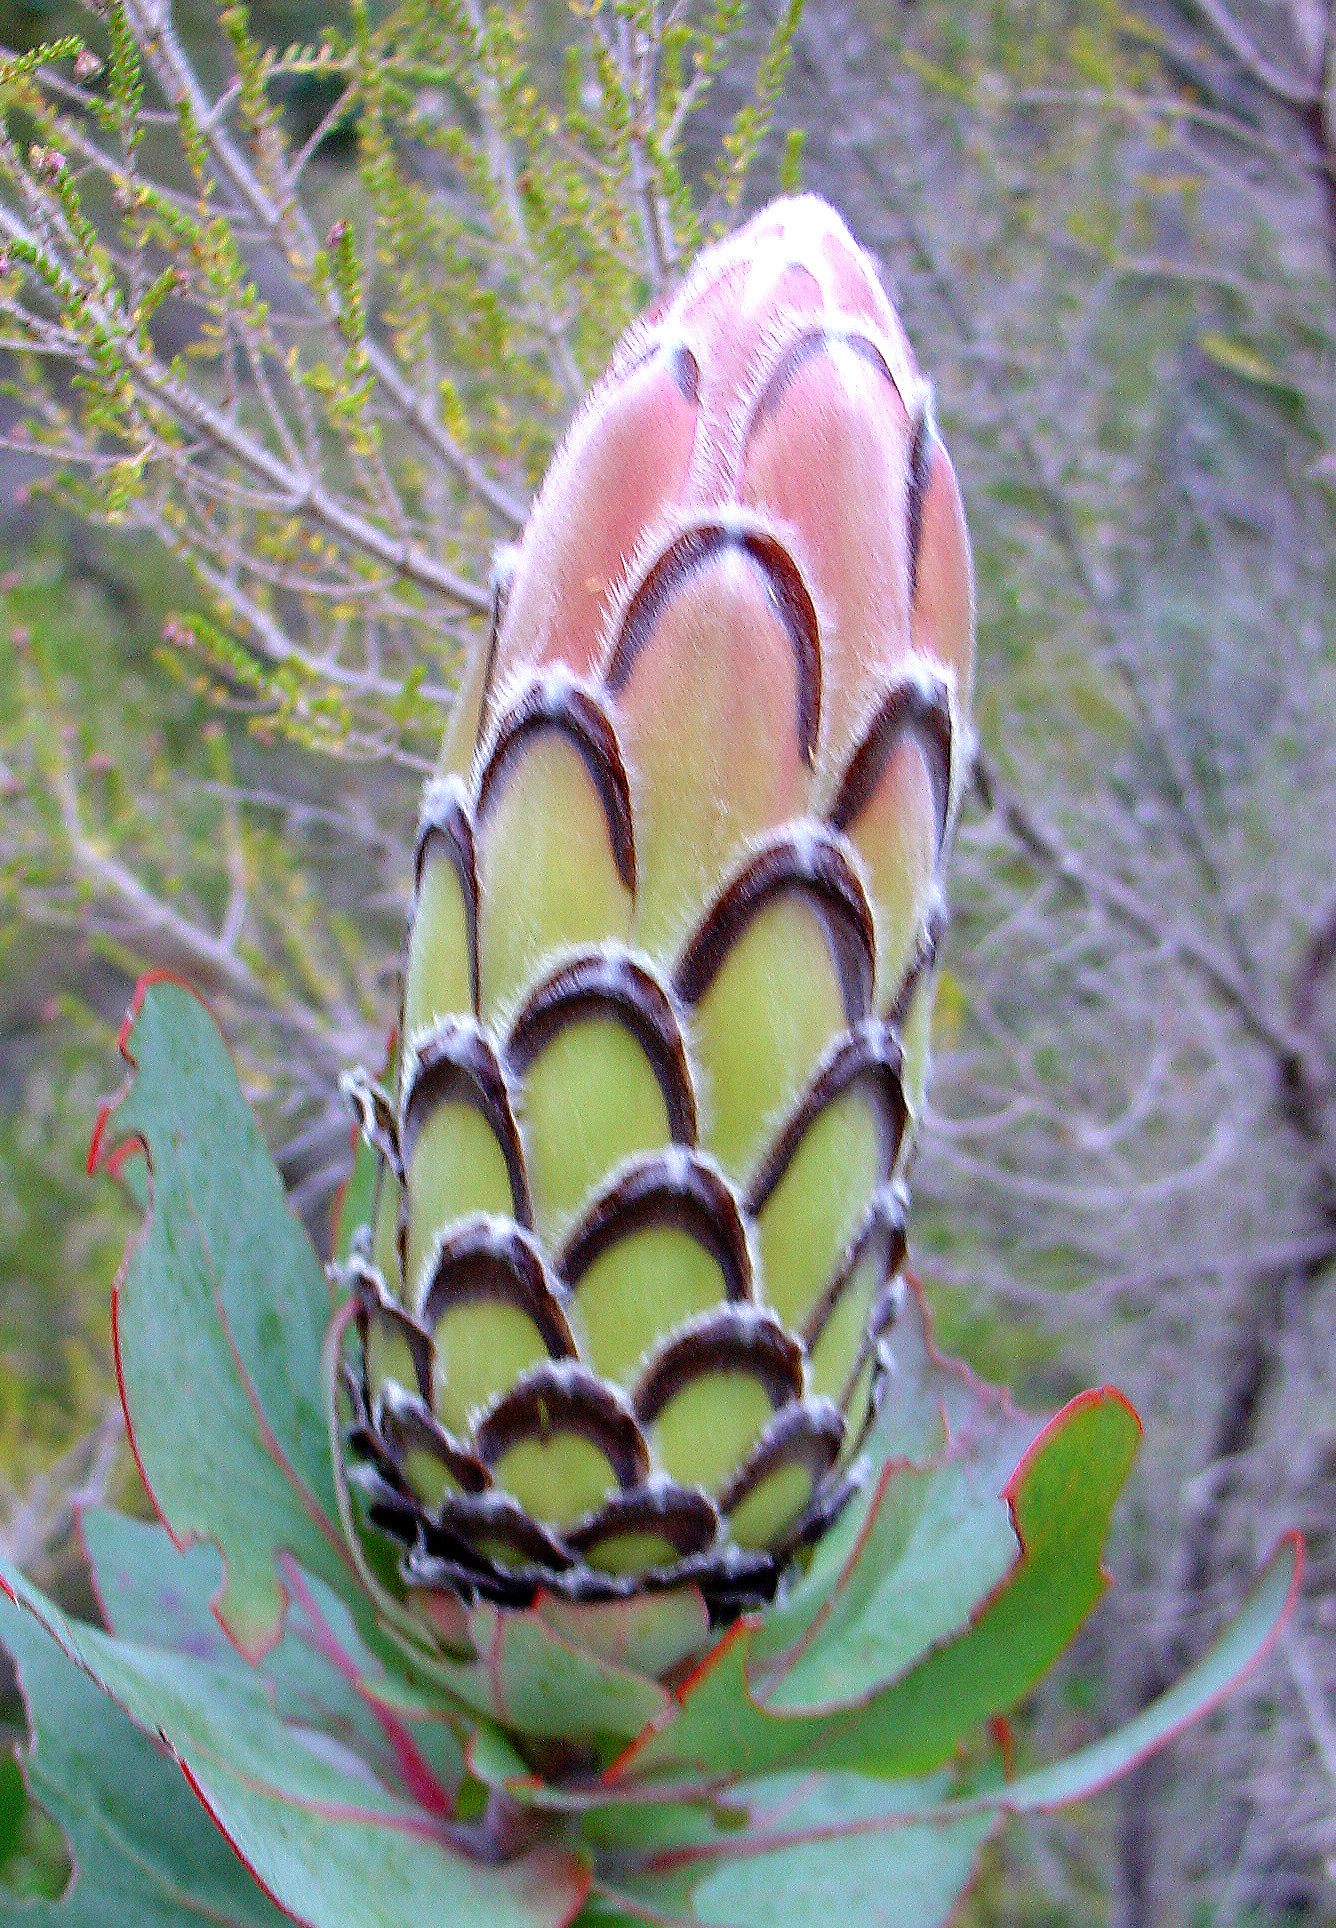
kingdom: Plantae
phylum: Tracheophyta
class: Magnoliopsida
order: Proteales
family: Proteaceae
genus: Protea
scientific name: Protea eximia
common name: Broad-leaved sugarbush
